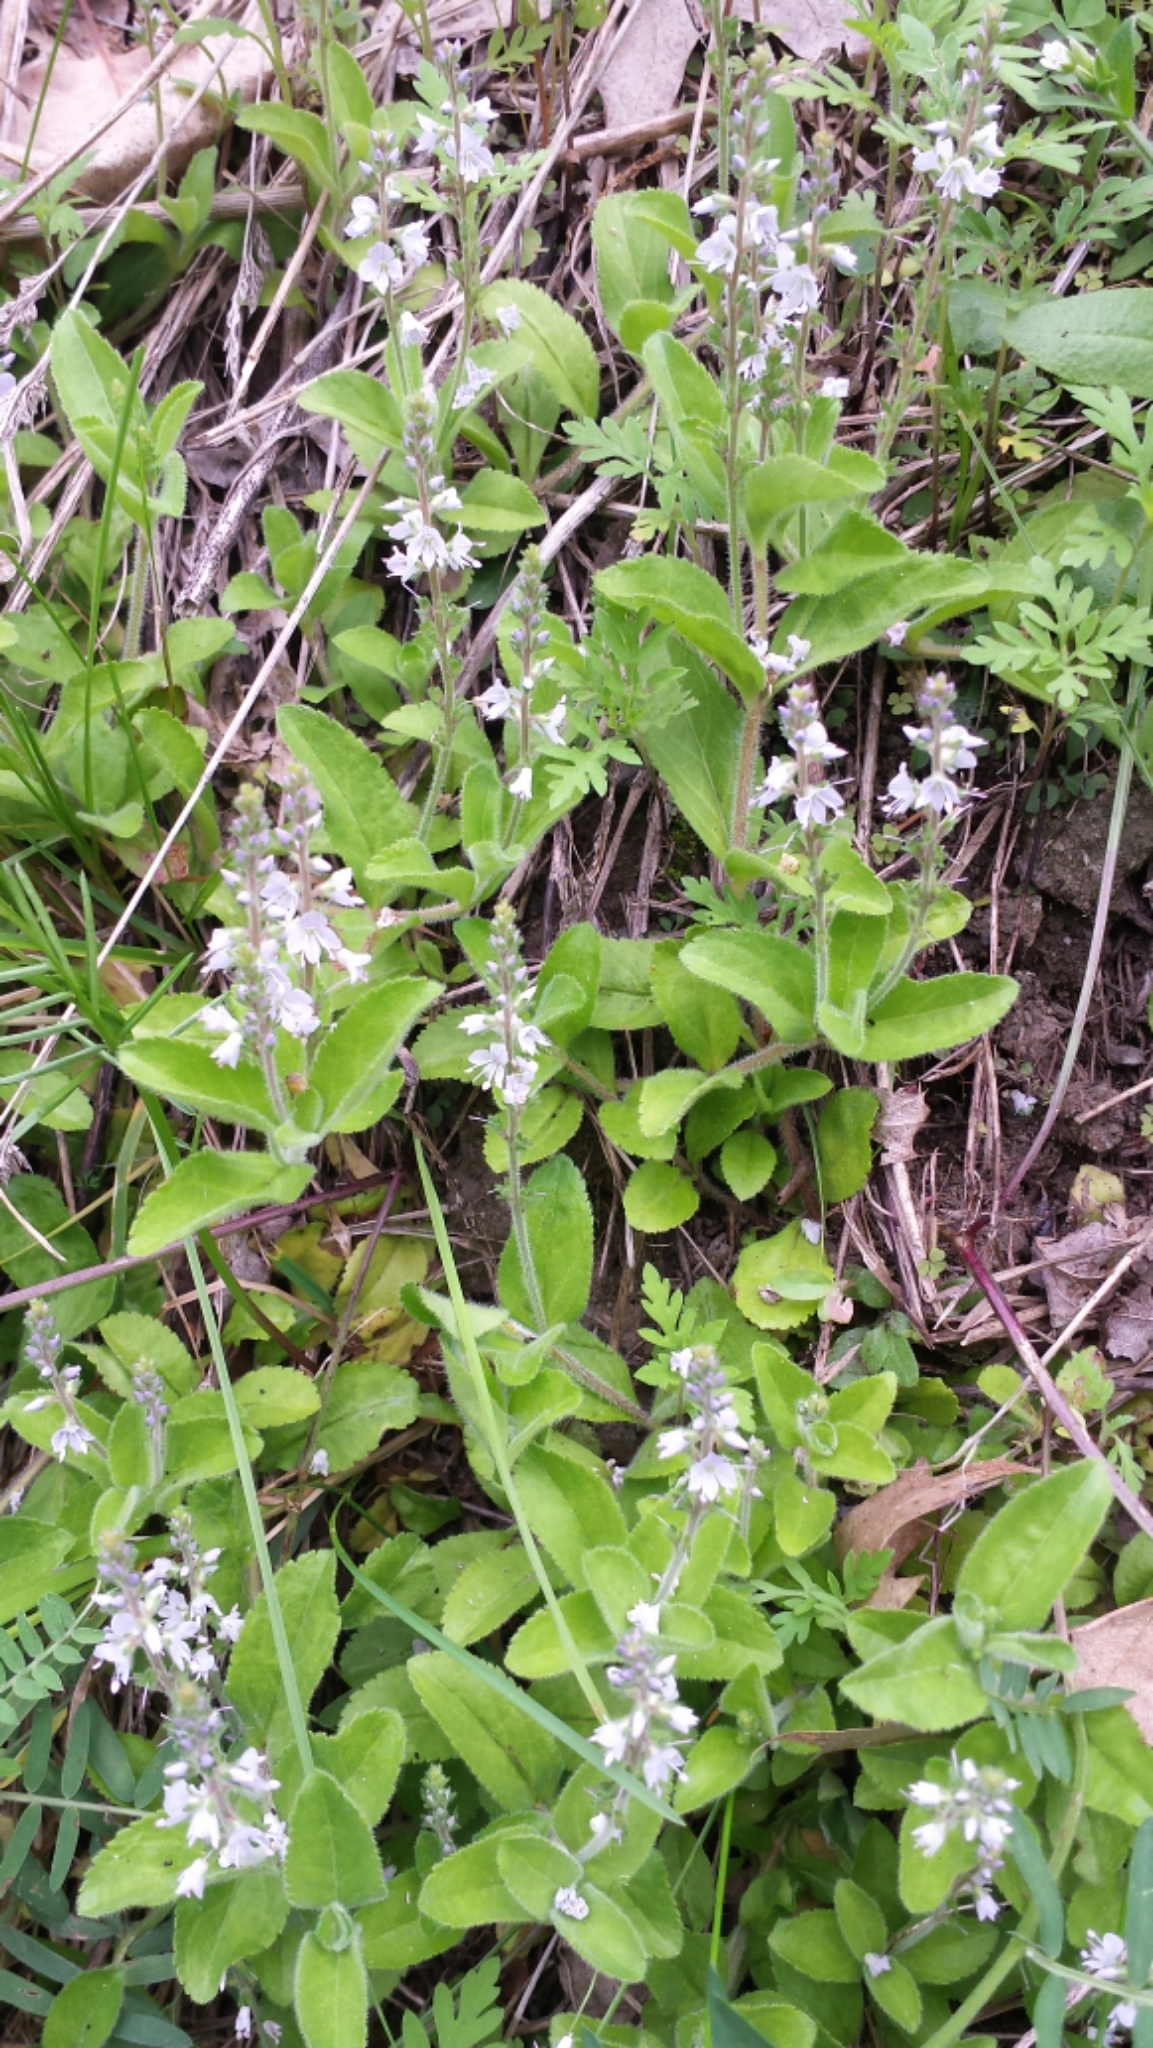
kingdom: Plantae
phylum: Tracheophyta
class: Magnoliopsida
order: Lamiales
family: Plantaginaceae
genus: Veronica
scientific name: Veronica officinalis
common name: Common speedwell
